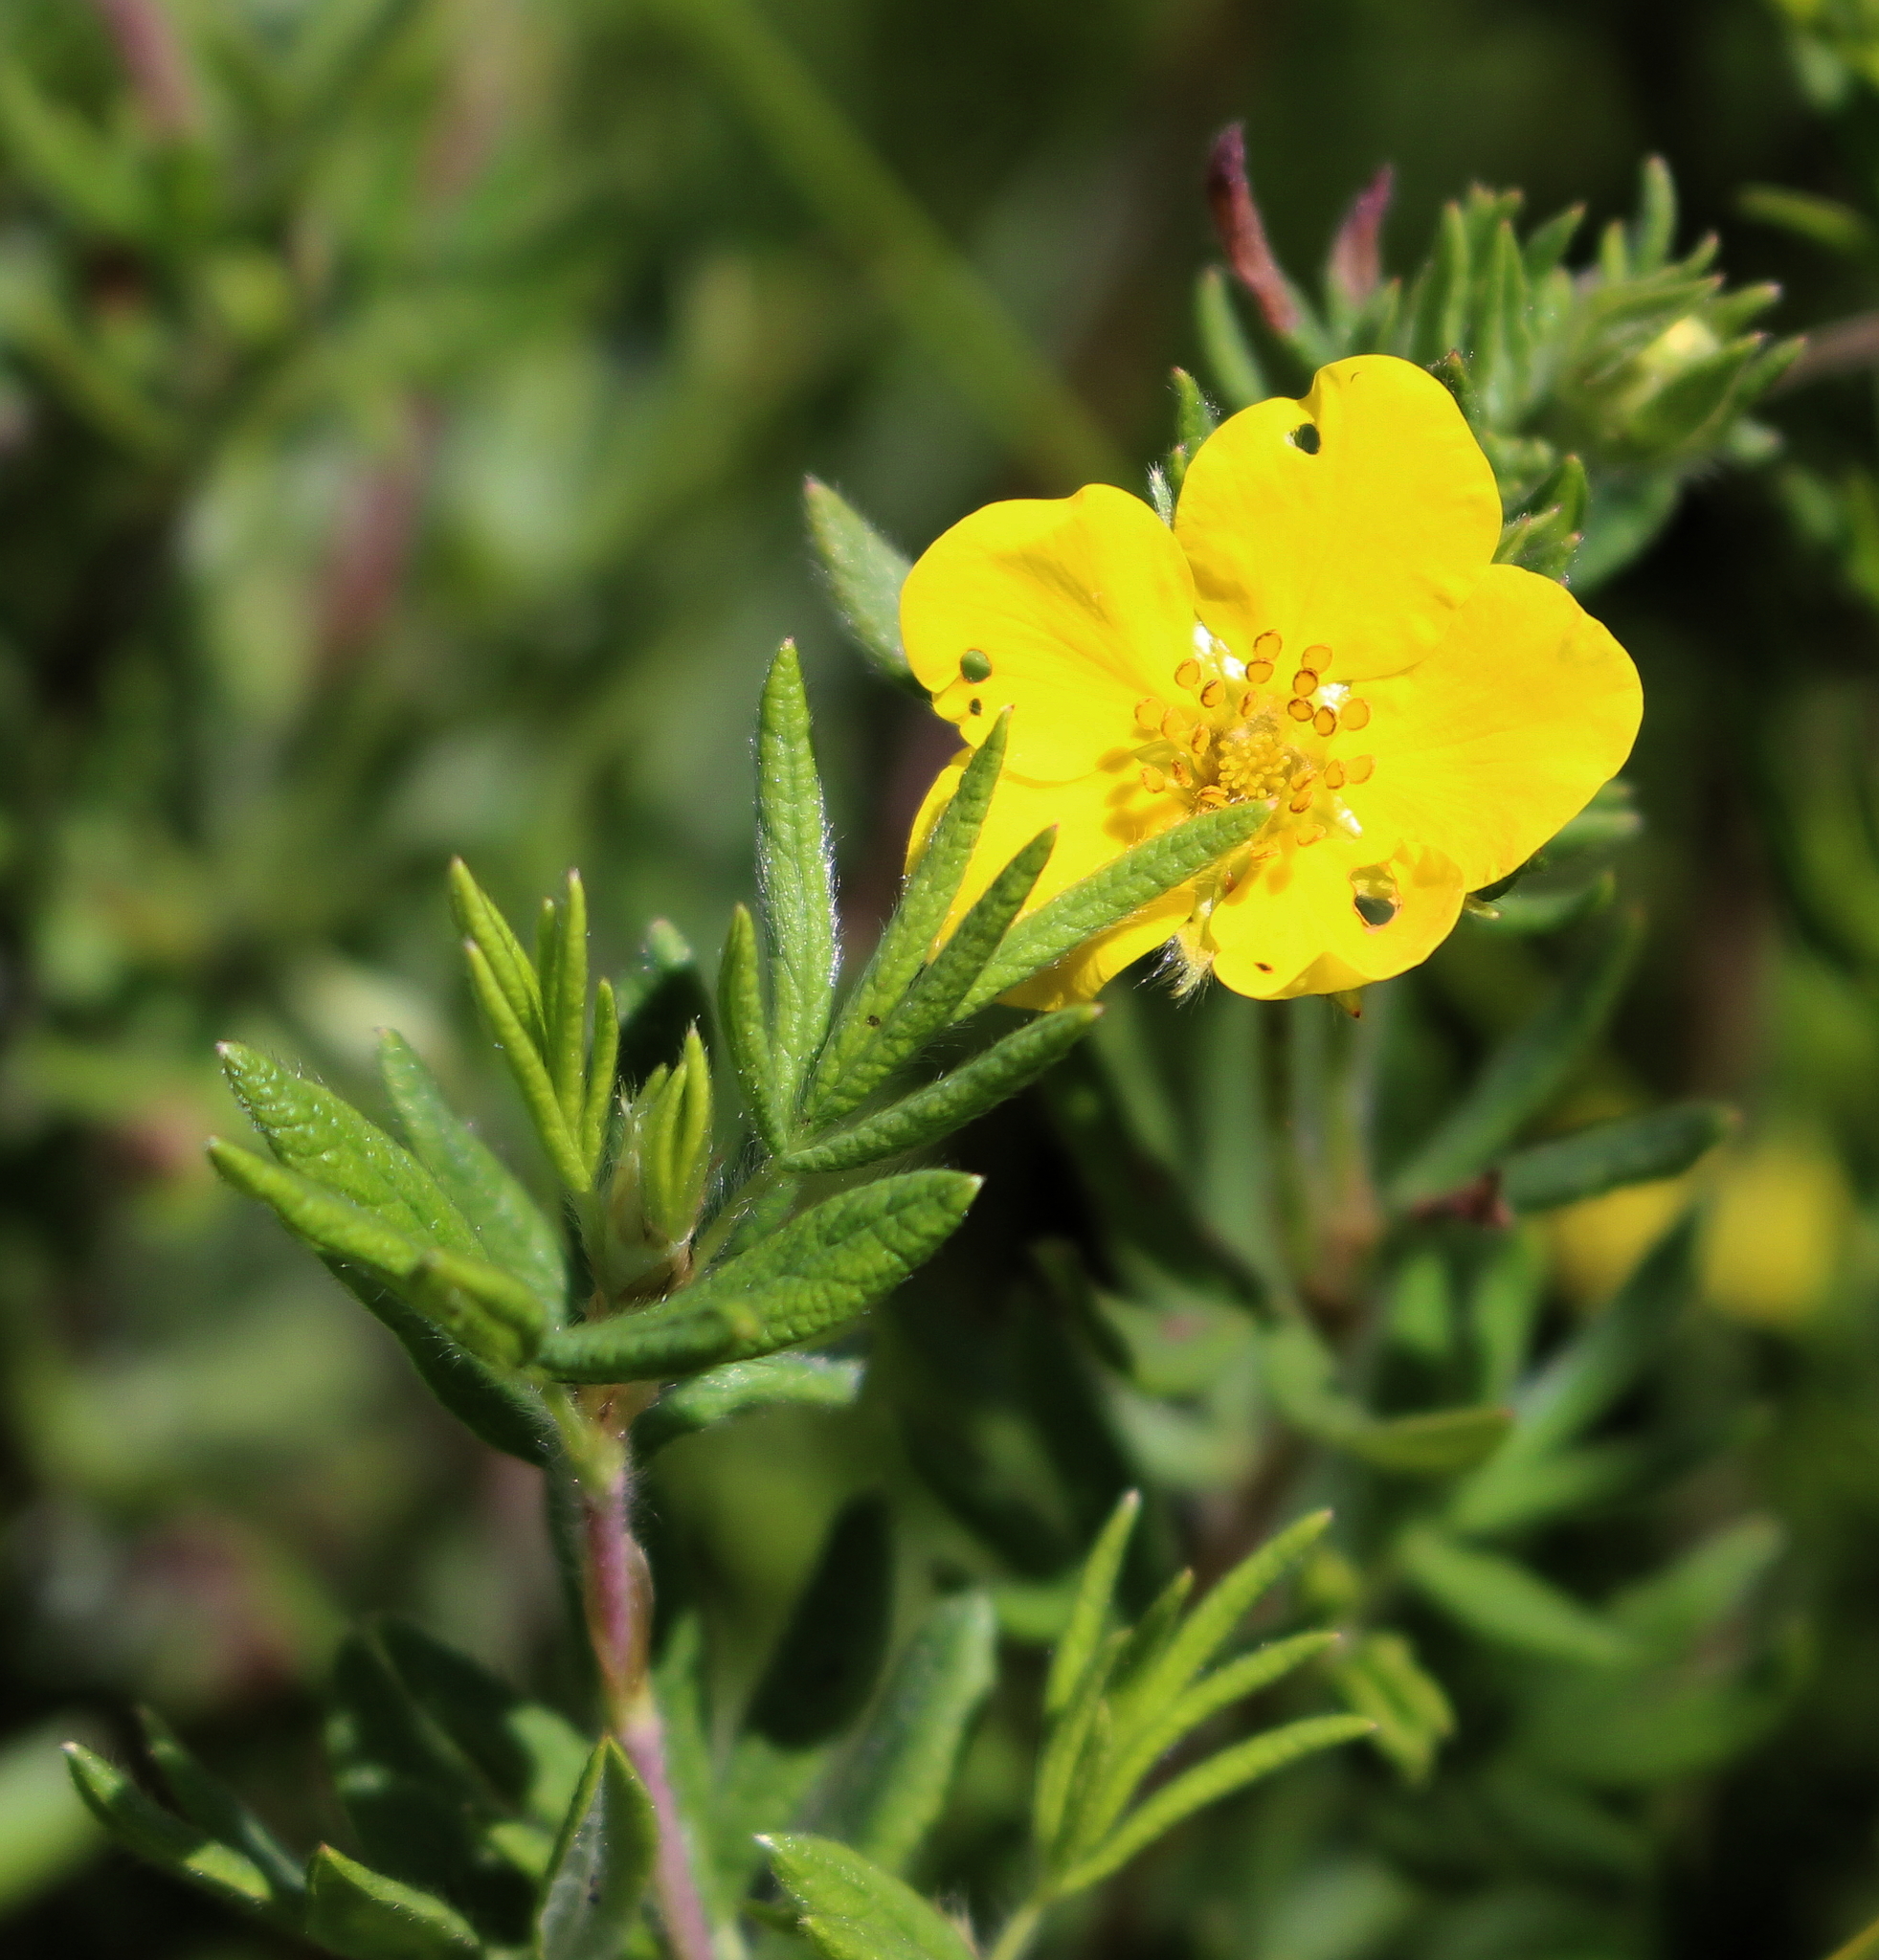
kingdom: Plantae
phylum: Tracheophyta
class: Magnoliopsida
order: Rosales
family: Rosaceae
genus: Dasiphora
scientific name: Dasiphora fruticosa
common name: Shrubby cinquefoil
